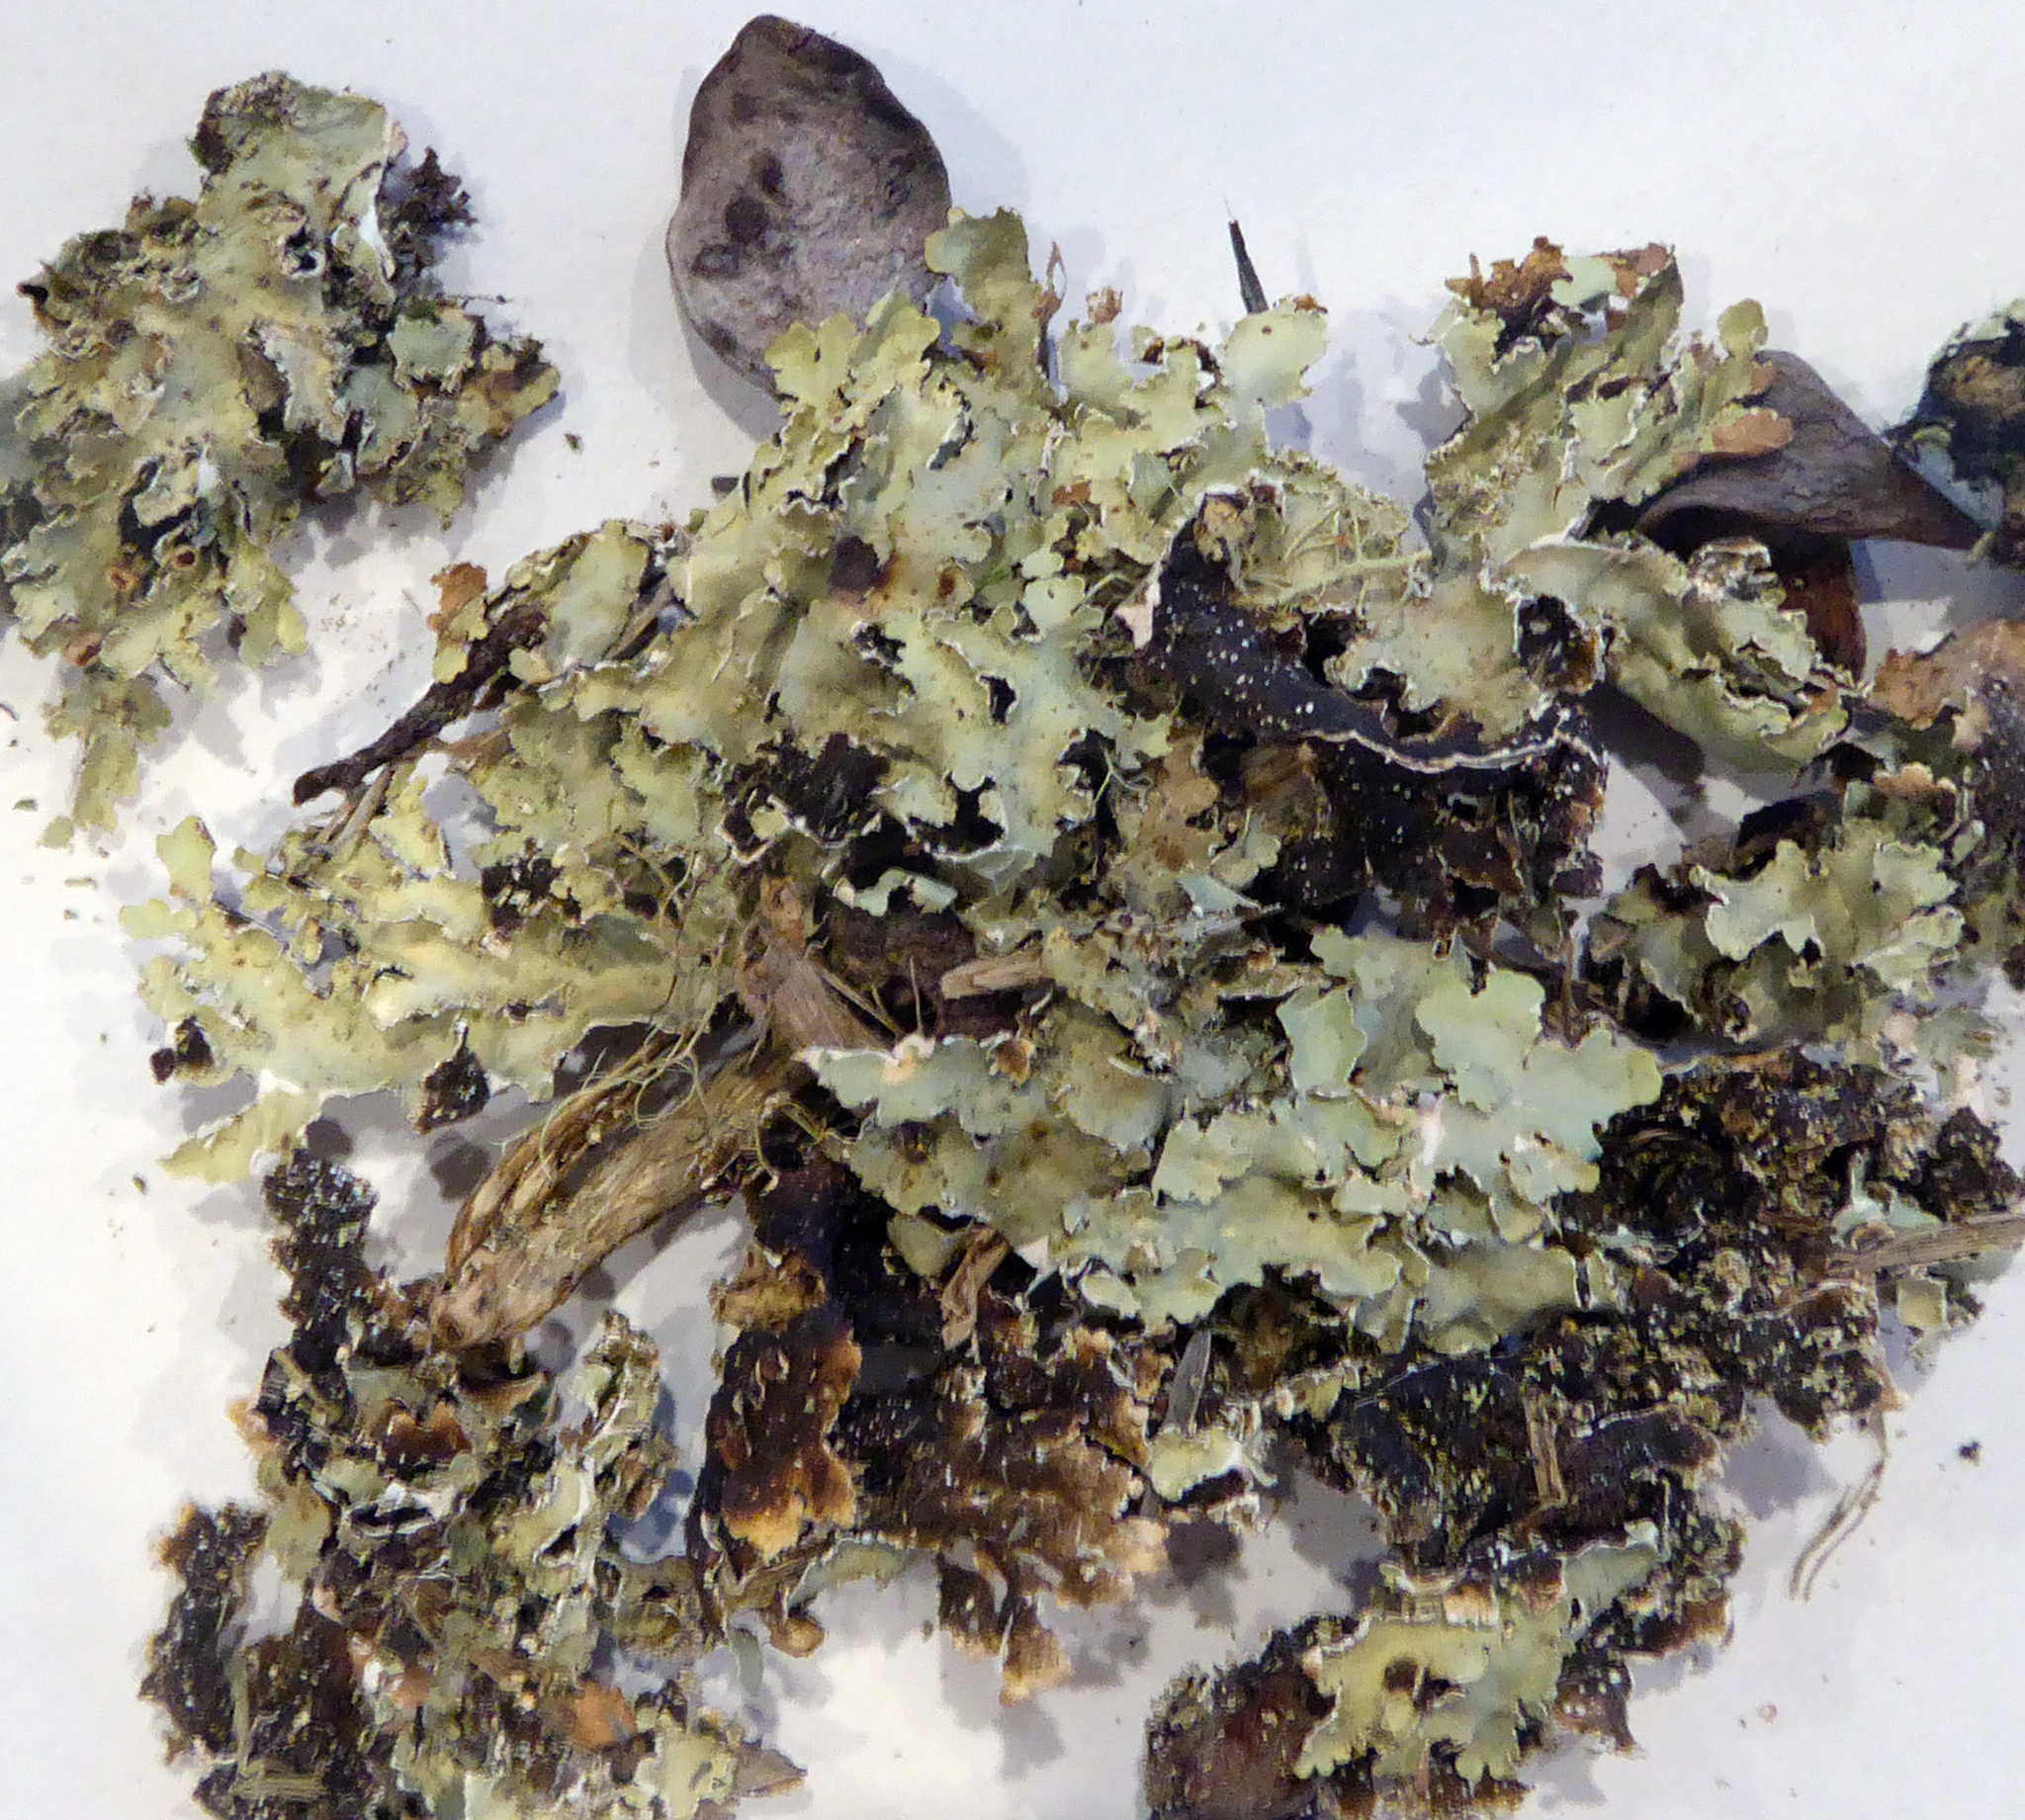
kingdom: Fungi
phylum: Ascomycota
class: Lecanoromycetes
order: Peltigerales
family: Lobariaceae
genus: Pseudocyphellaria
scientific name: Pseudocyphellaria glabra
